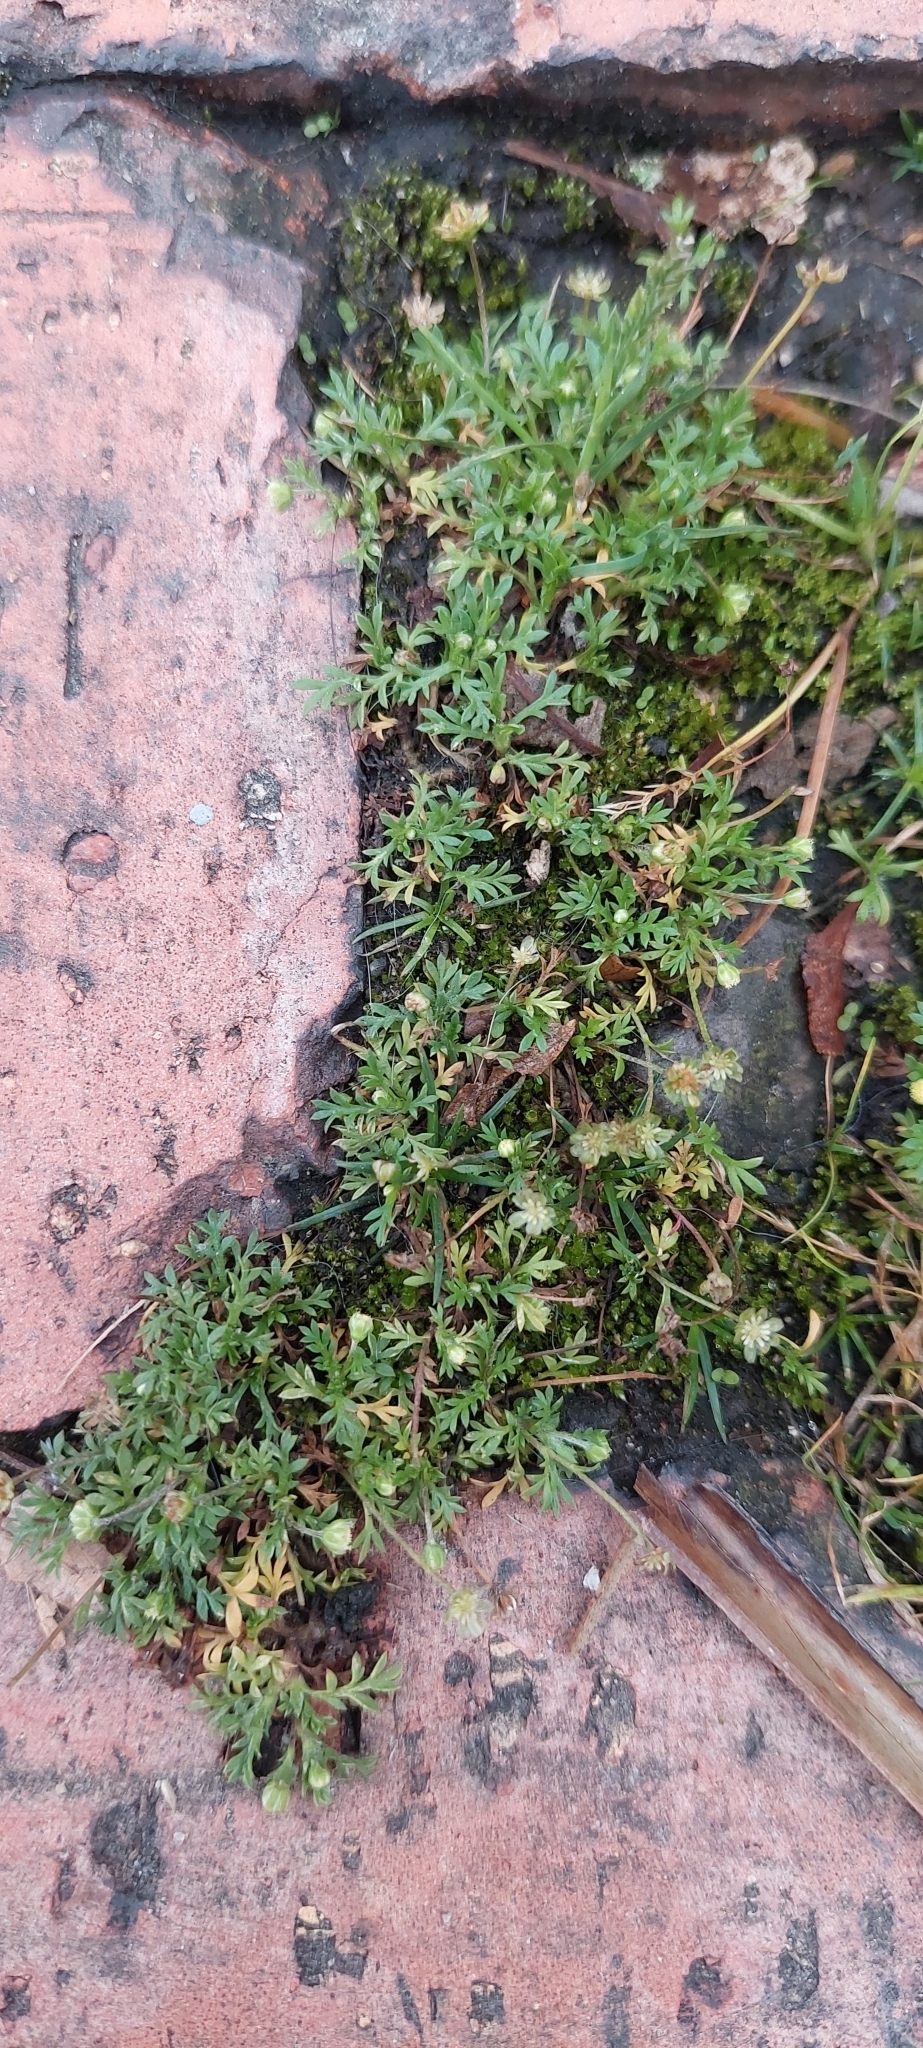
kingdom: Plantae
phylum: Tracheophyta
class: Magnoliopsida
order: Asterales
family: Asteraceae
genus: Cotula
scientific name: Cotula australis
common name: Australian waterbuttons
